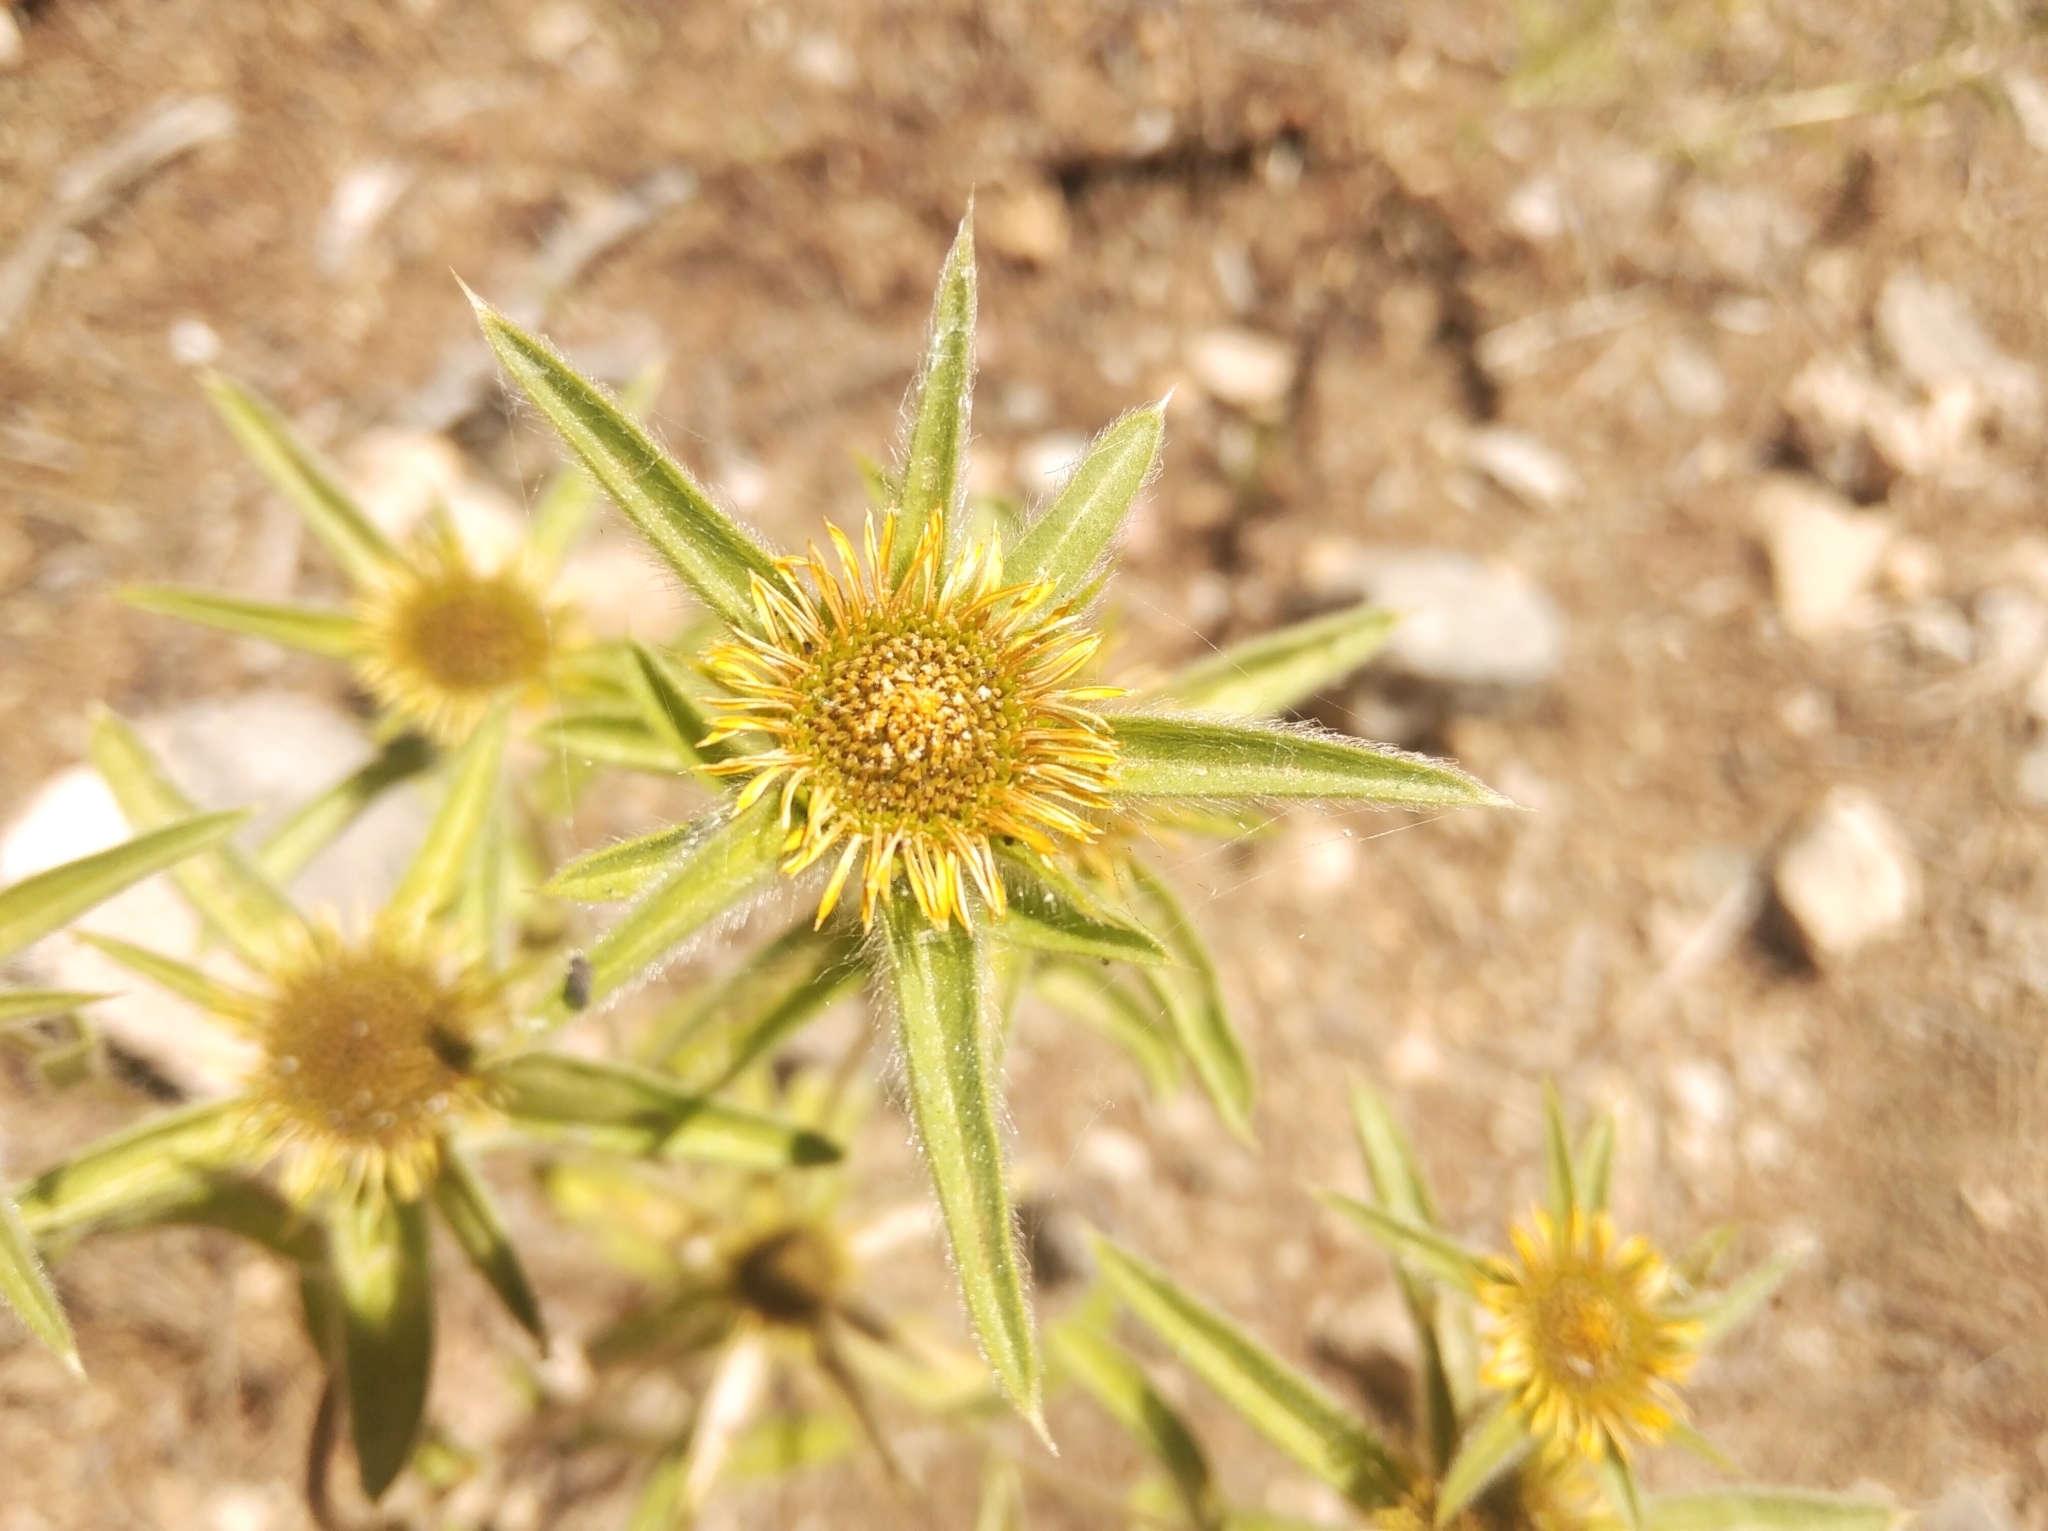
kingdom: Plantae
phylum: Tracheophyta
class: Magnoliopsida
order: Asterales
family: Asteraceae
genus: Pallenis
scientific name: Pallenis spinosa
